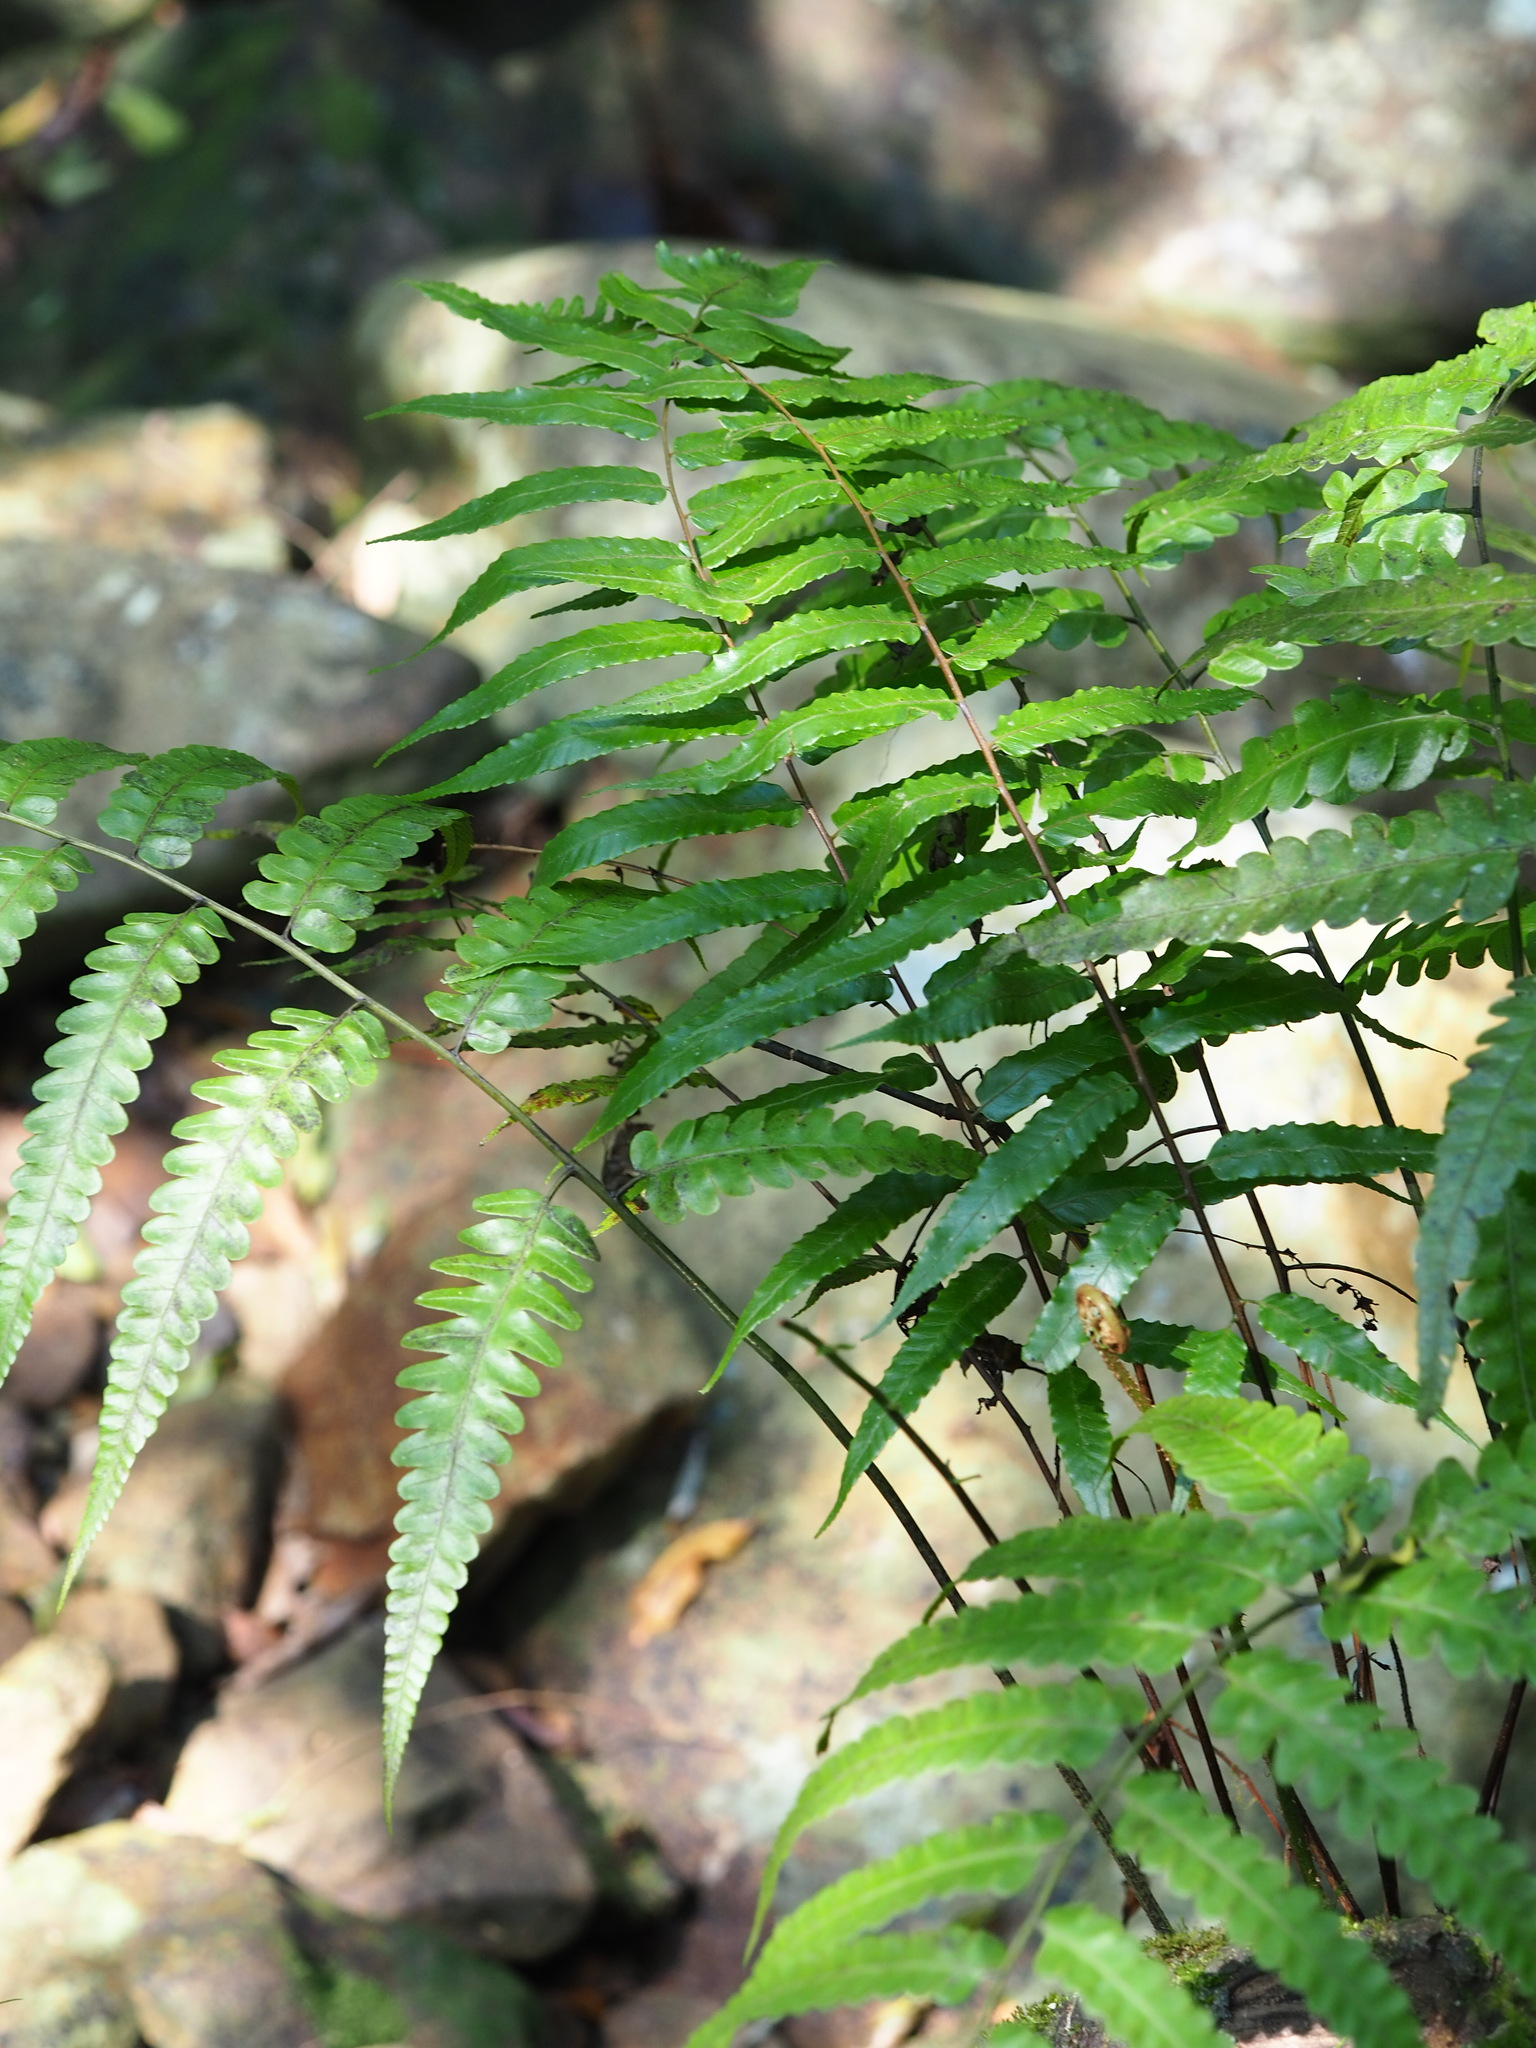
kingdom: Plantae
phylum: Tracheophyta
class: Polypodiopsida
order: Polypodiales
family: Athyriaceae
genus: Diplazium
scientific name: Diplazium dilatatum
